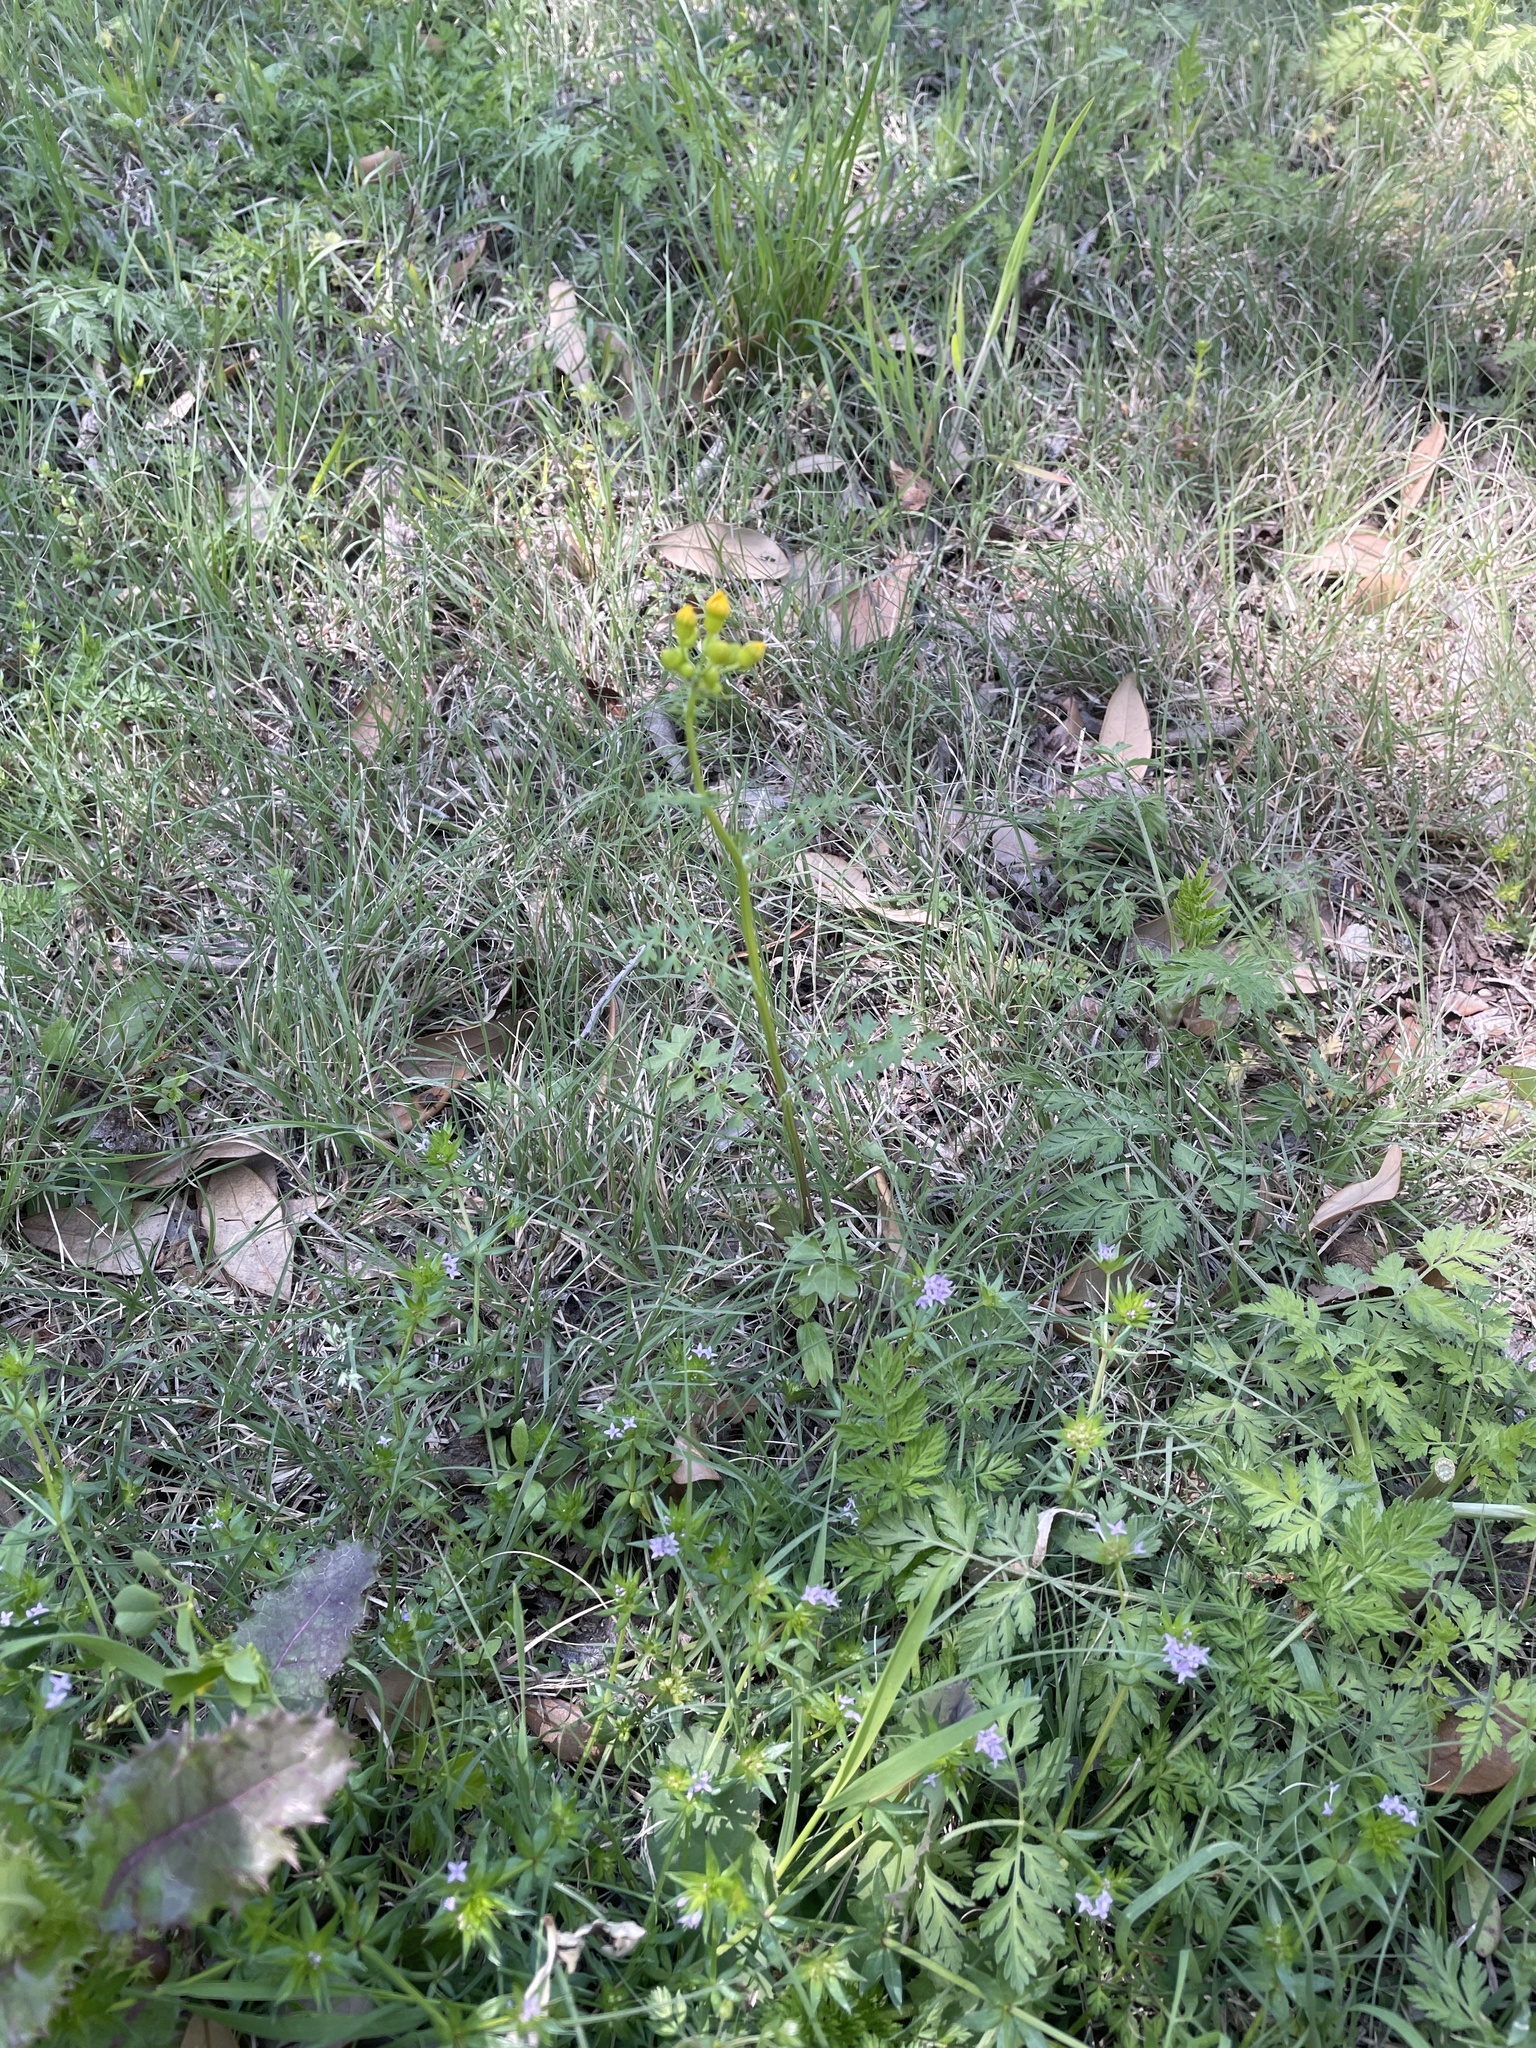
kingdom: Plantae
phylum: Tracheophyta
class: Magnoliopsida
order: Asterales
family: Asteraceae
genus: Packera
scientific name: Packera tampicana
